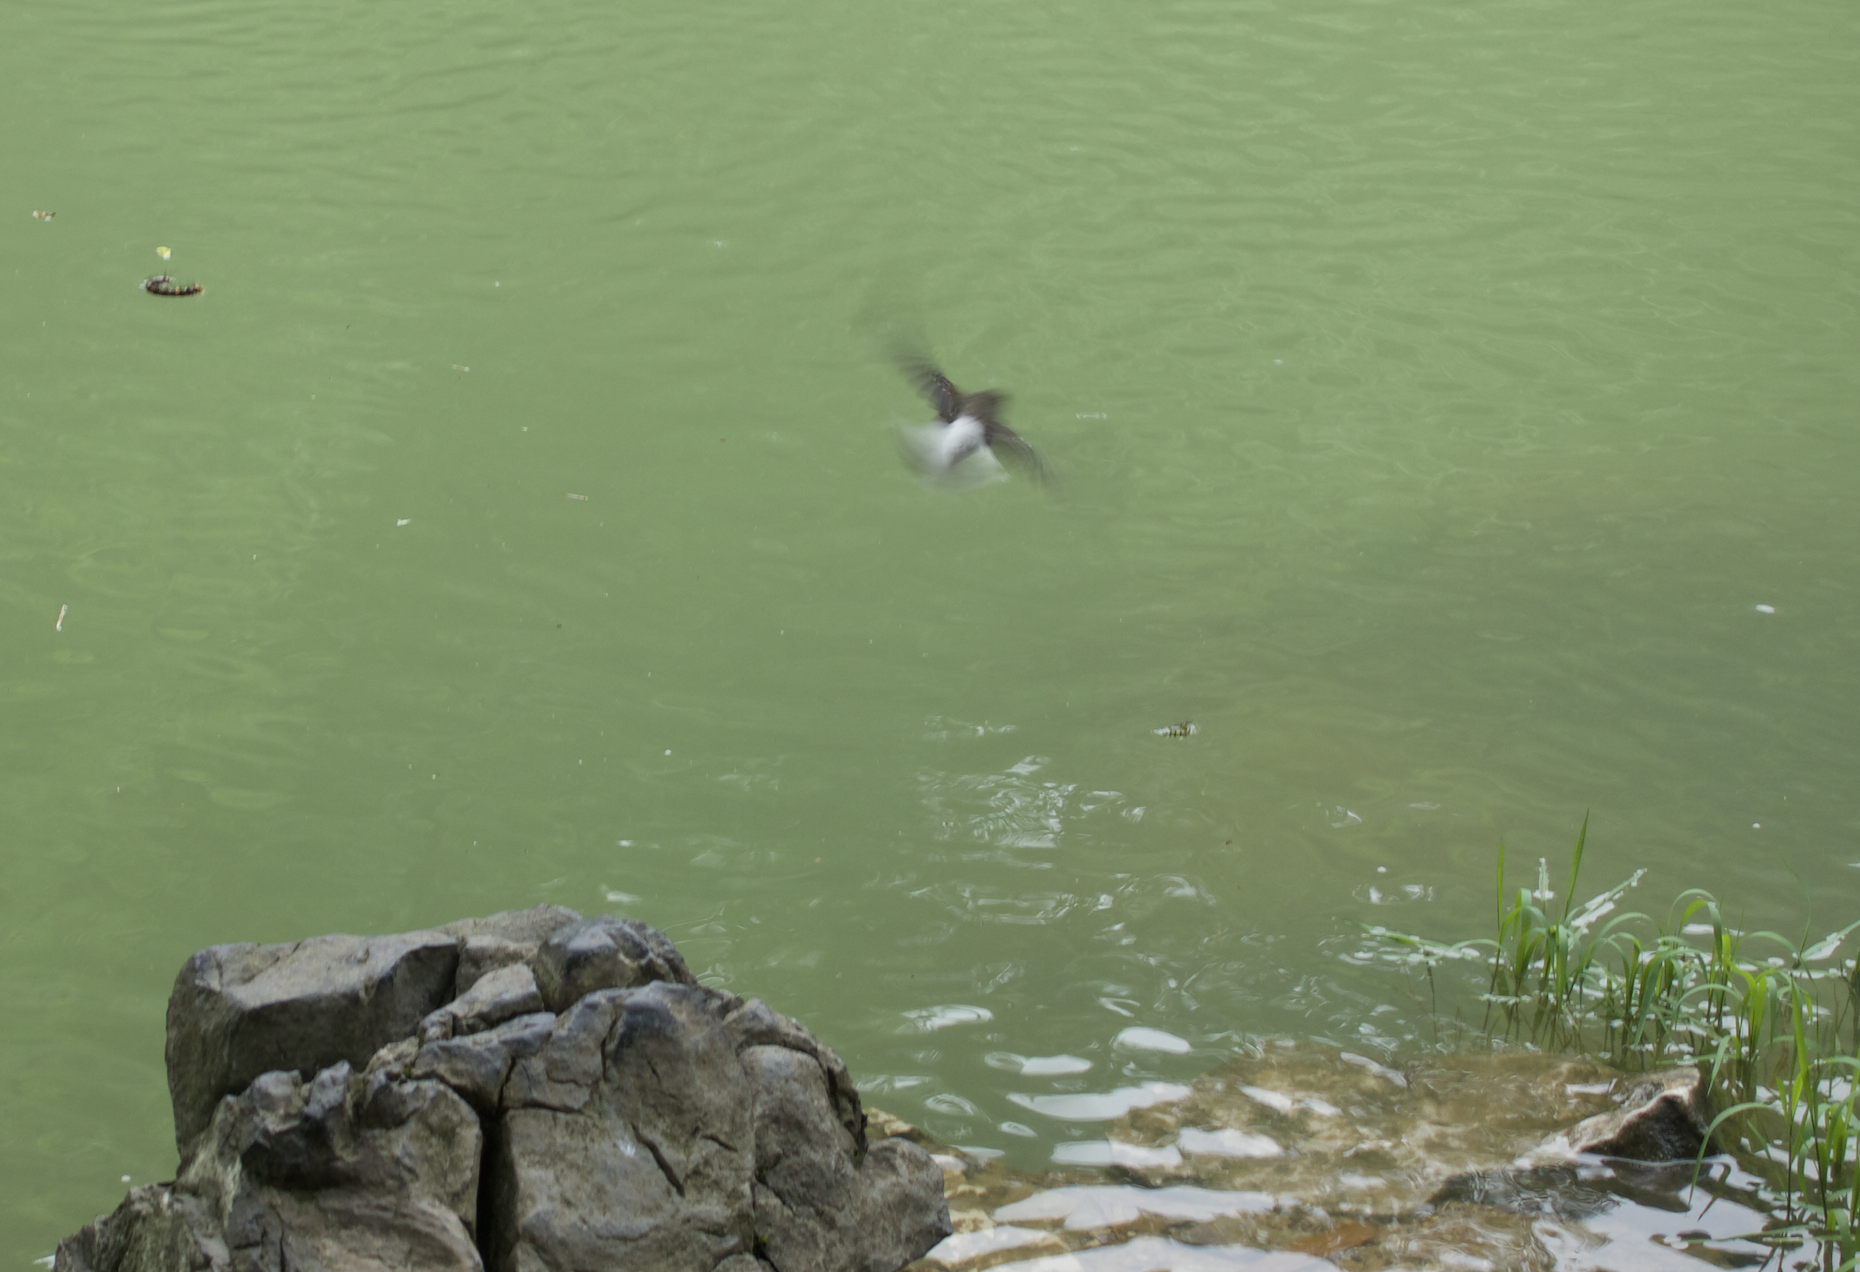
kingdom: Animalia
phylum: Chordata
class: Aves
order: Passeriformes
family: Muscicapidae
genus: Phoenicurus
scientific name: Phoenicurus fuliginosus
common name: Plumbeous water redstart
